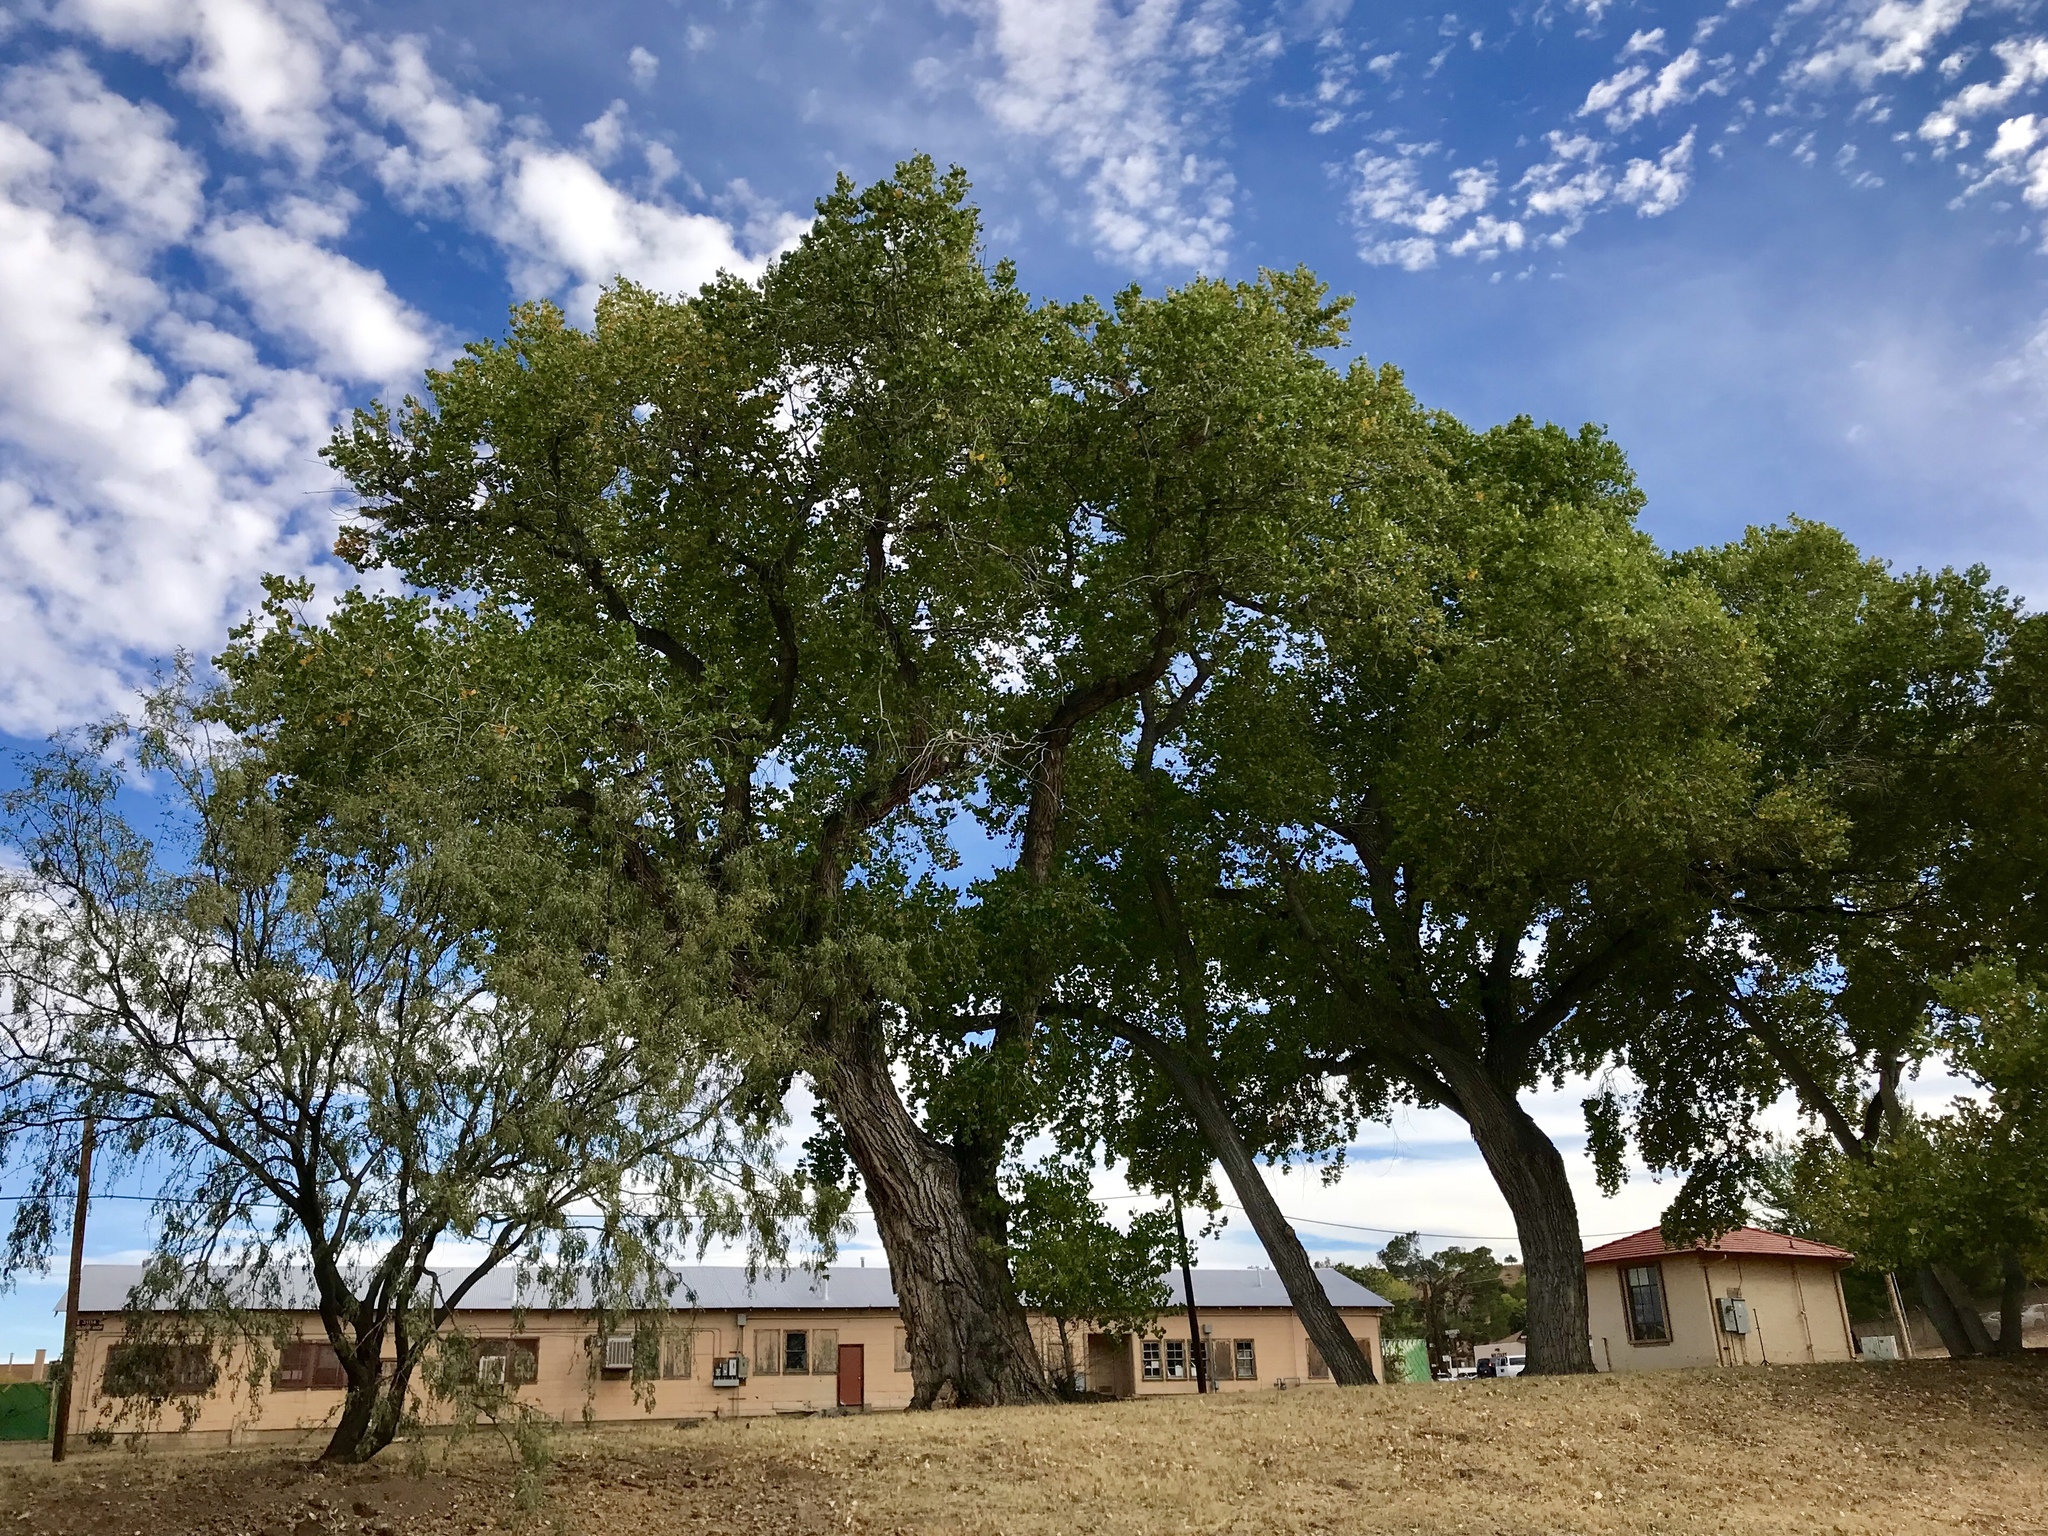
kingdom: Plantae
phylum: Tracheophyta
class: Magnoliopsida
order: Malpighiales
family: Salicaceae
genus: Populus
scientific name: Populus fremontii
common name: Fremont's cottonwood
